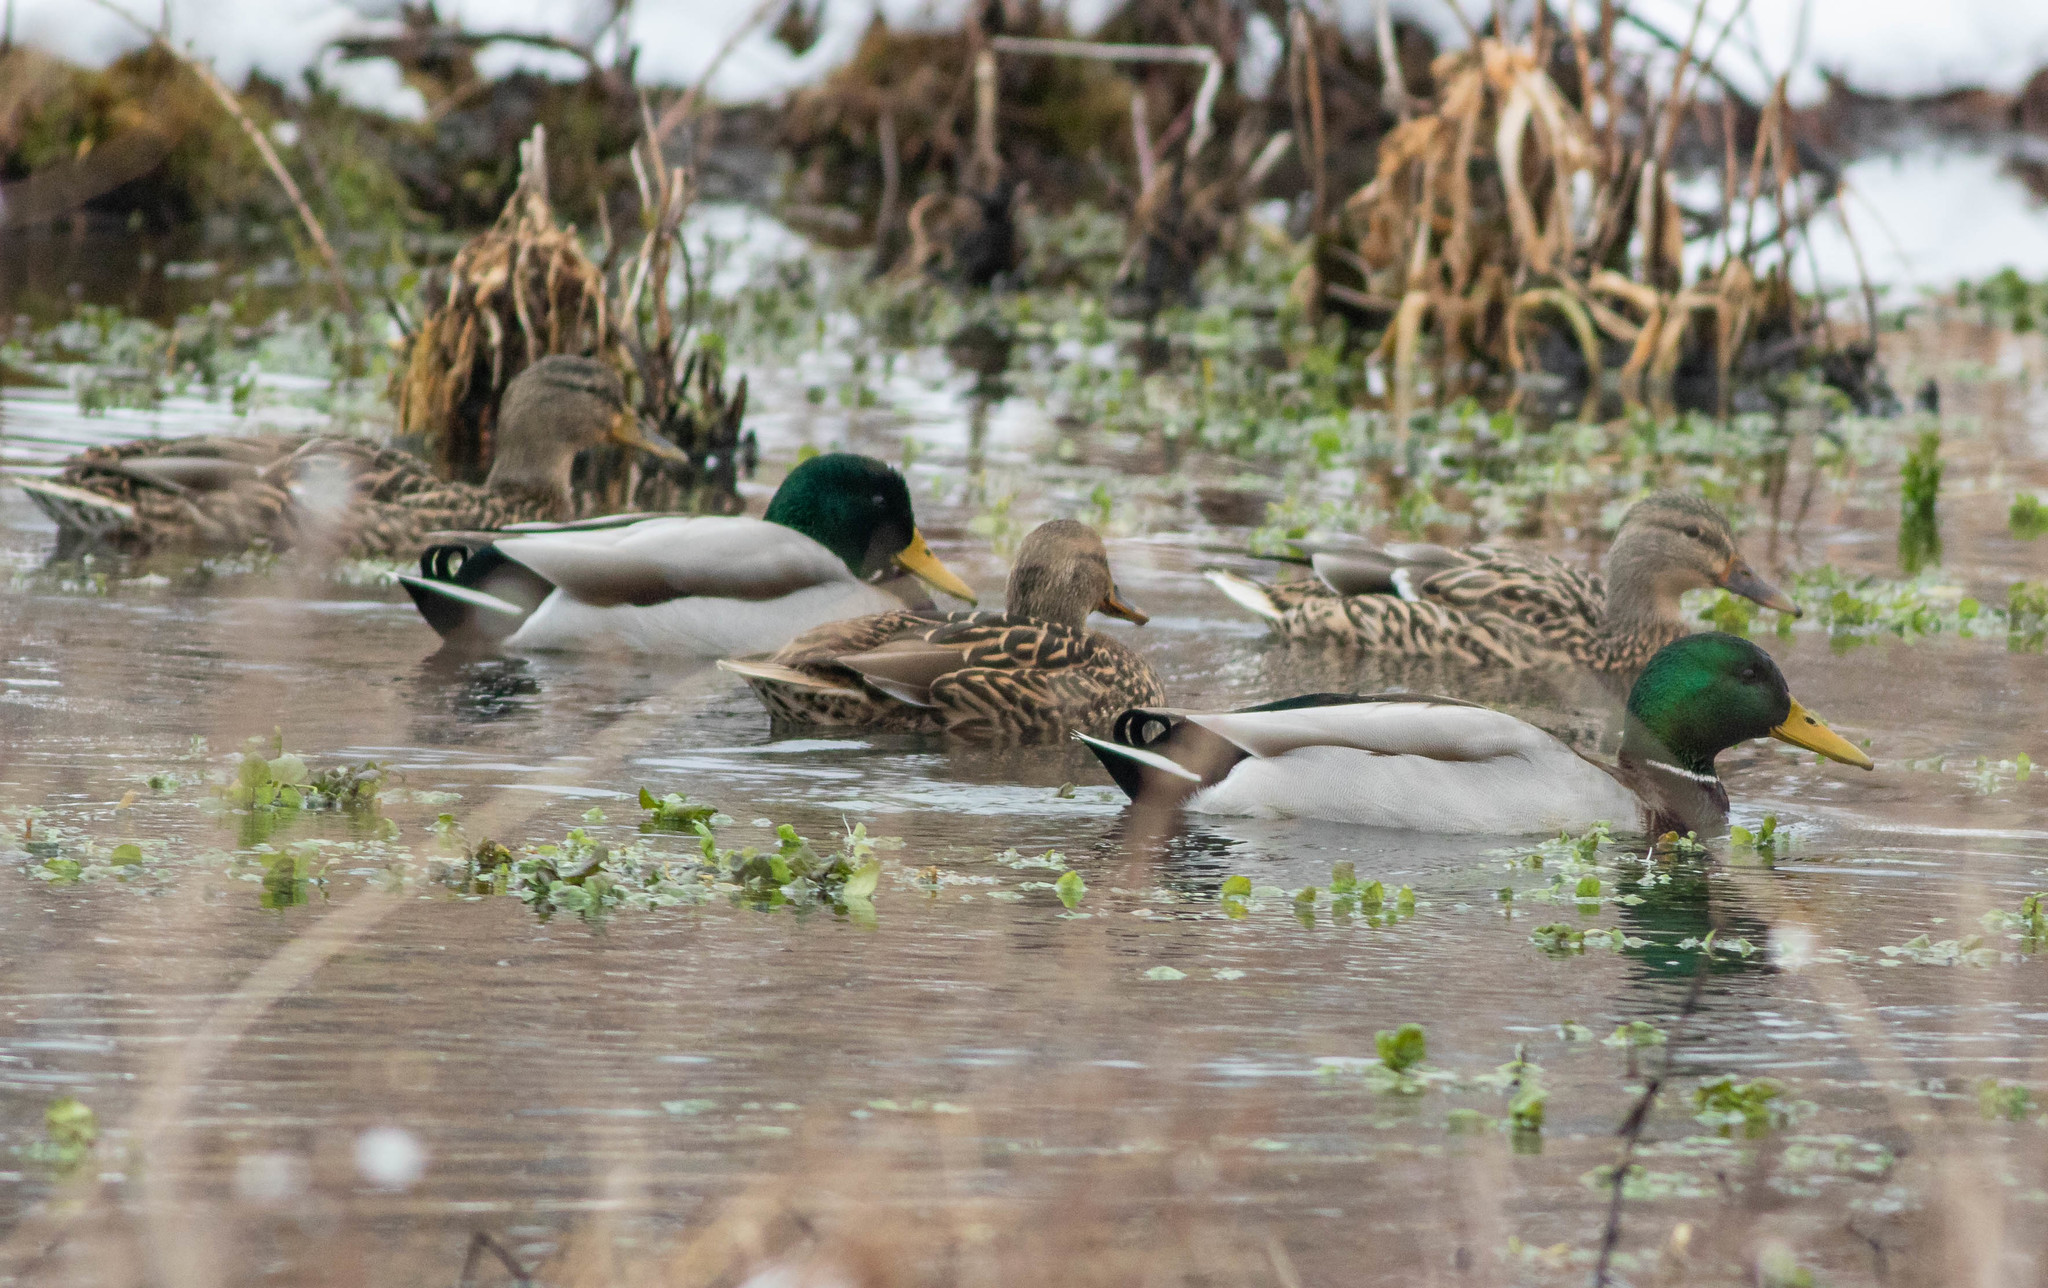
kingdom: Animalia
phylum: Chordata
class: Aves
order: Anseriformes
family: Anatidae
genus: Anas
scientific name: Anas platyrhynchos
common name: Mallard
